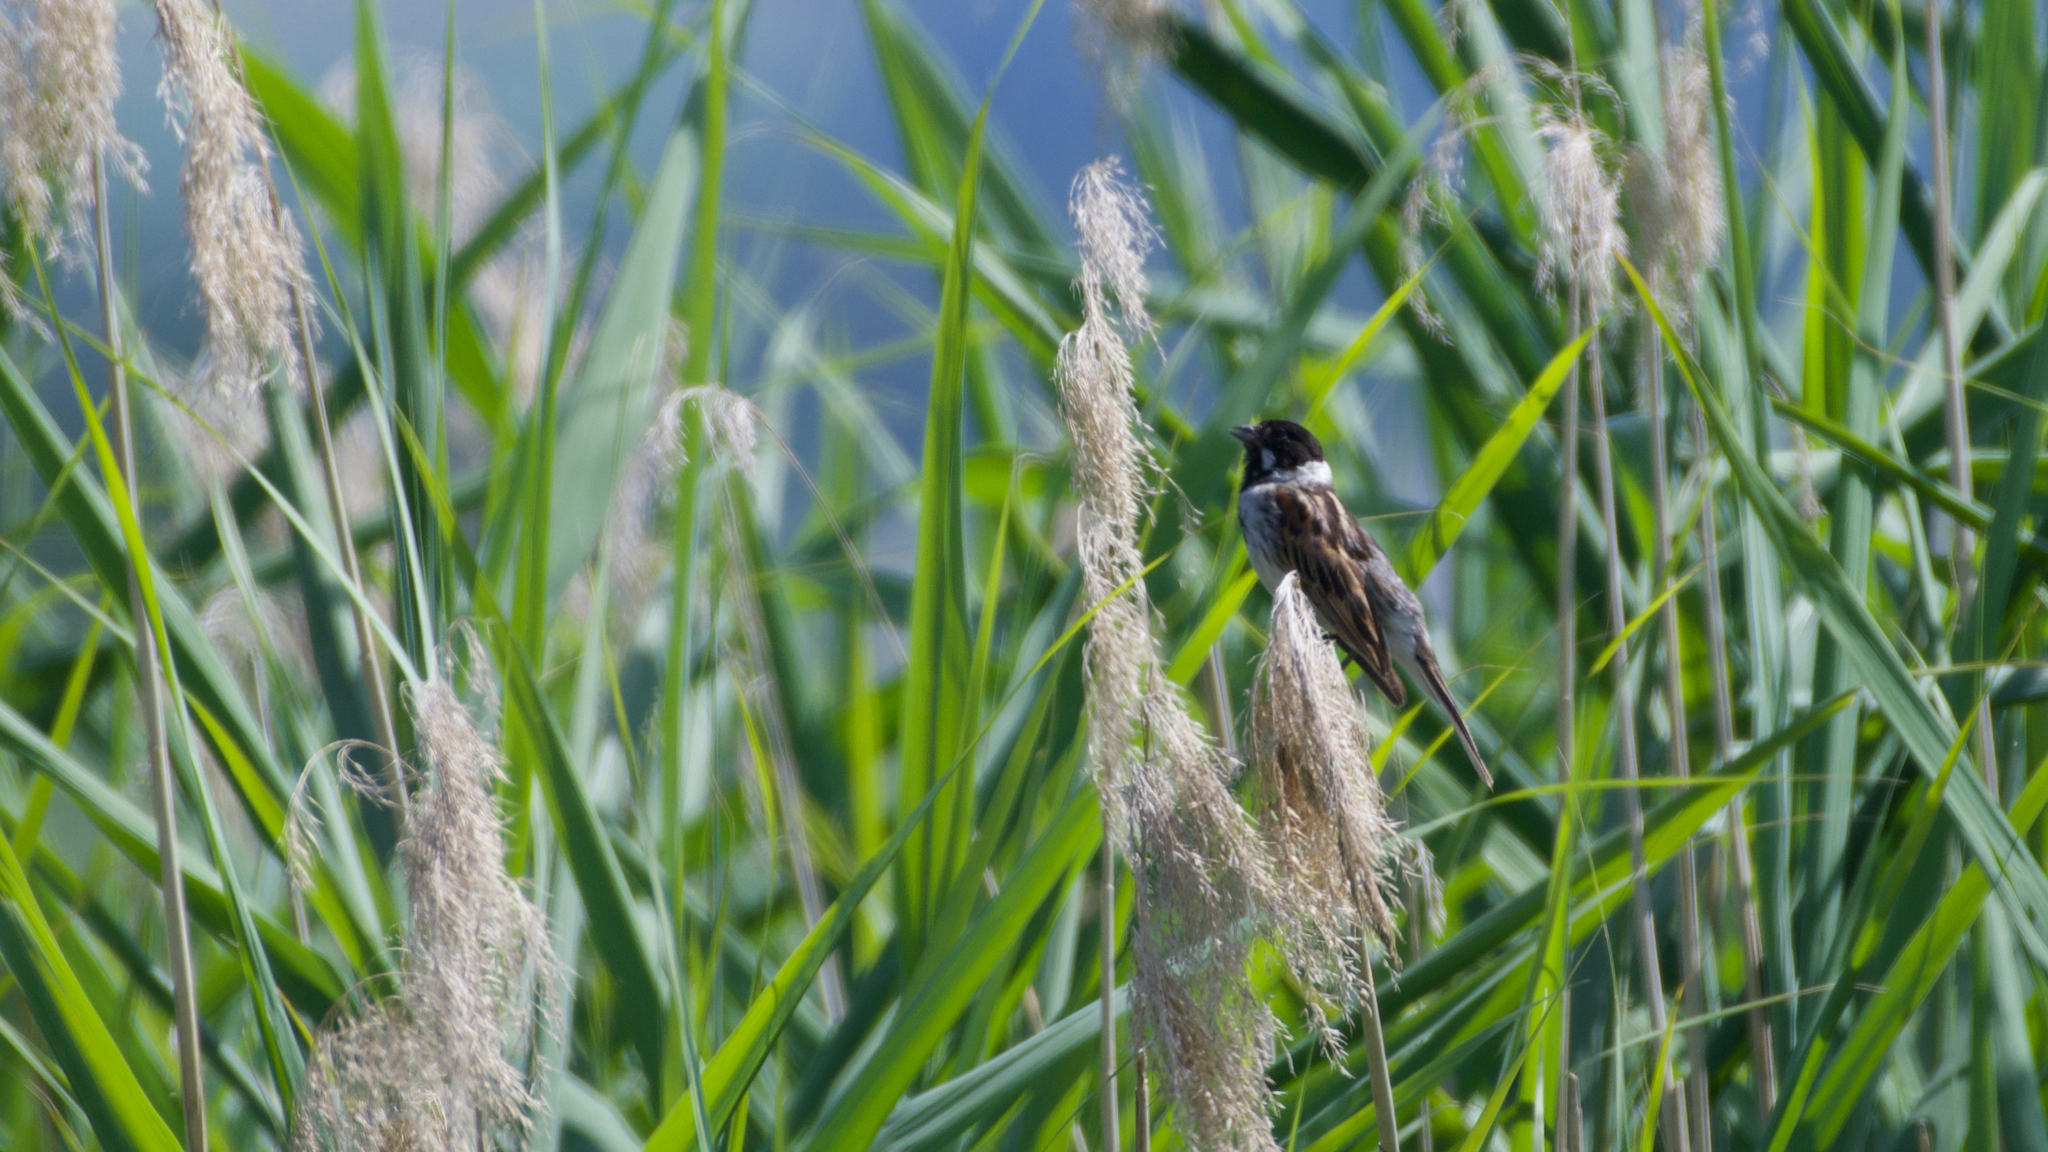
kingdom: Animalia
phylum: Chordata
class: Aves
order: Passeriformes
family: Emberizidae
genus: Emberiza
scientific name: Emberiza schoeniclus
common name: Reed bunting
